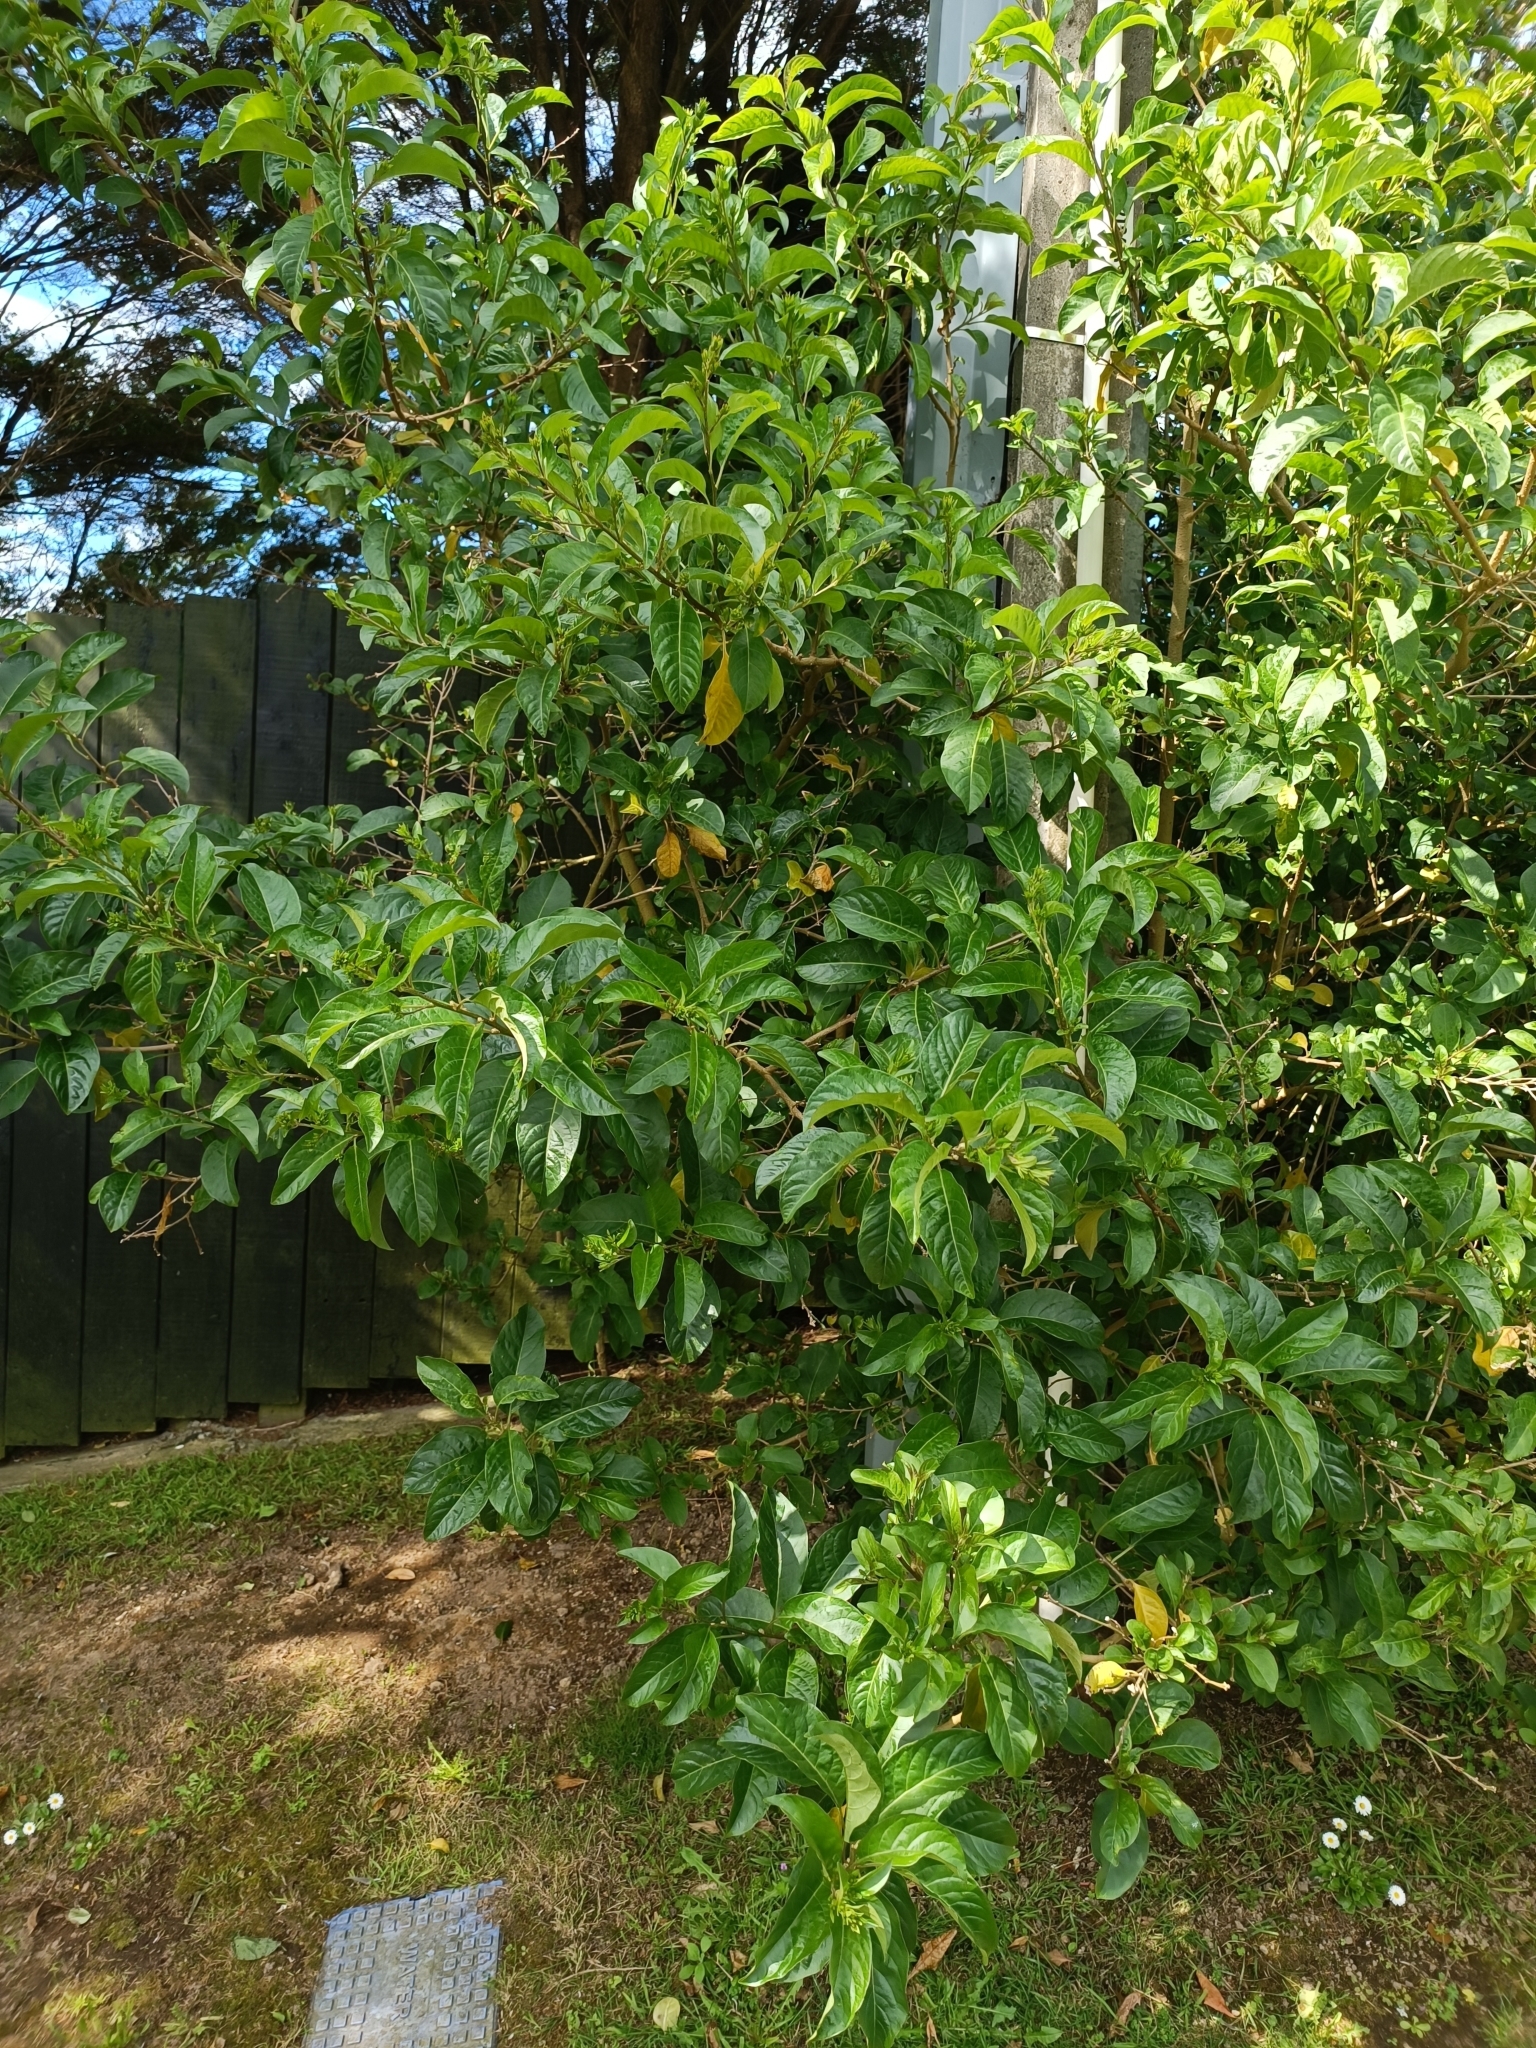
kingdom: Plantae
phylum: Tracheophyta
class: Magnoliopsida
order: Solanales
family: Solanaceae
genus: Cestrum
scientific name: Cestrum nocturnum
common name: Night jessamine
